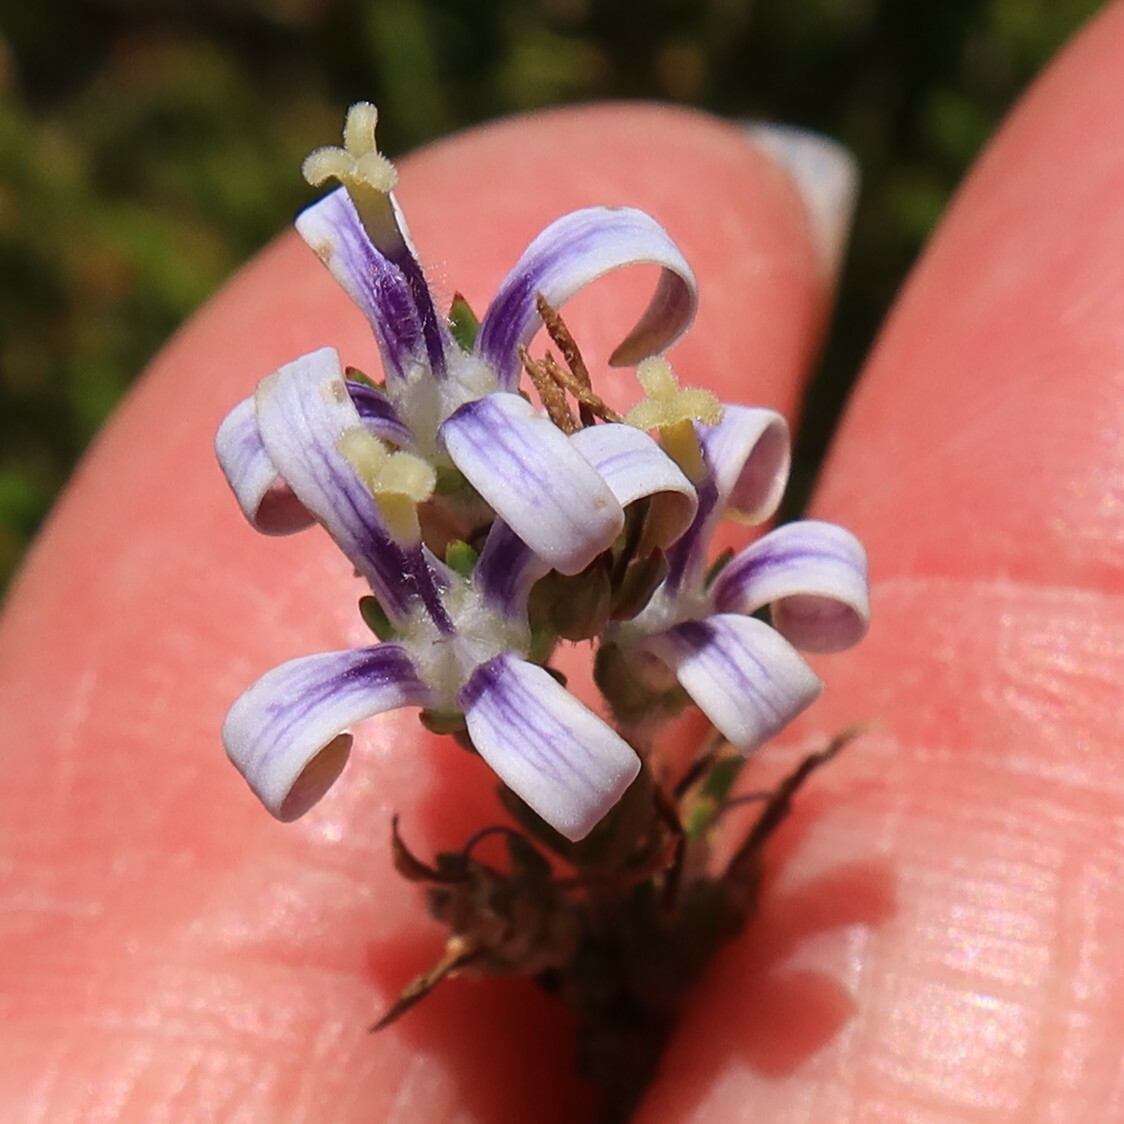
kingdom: Plantae
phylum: Tracheophyta
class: Magnoliopsida
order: Asterales
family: Campanulaceae
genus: Wahlenbergia
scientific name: Wahlenbergia subulata
